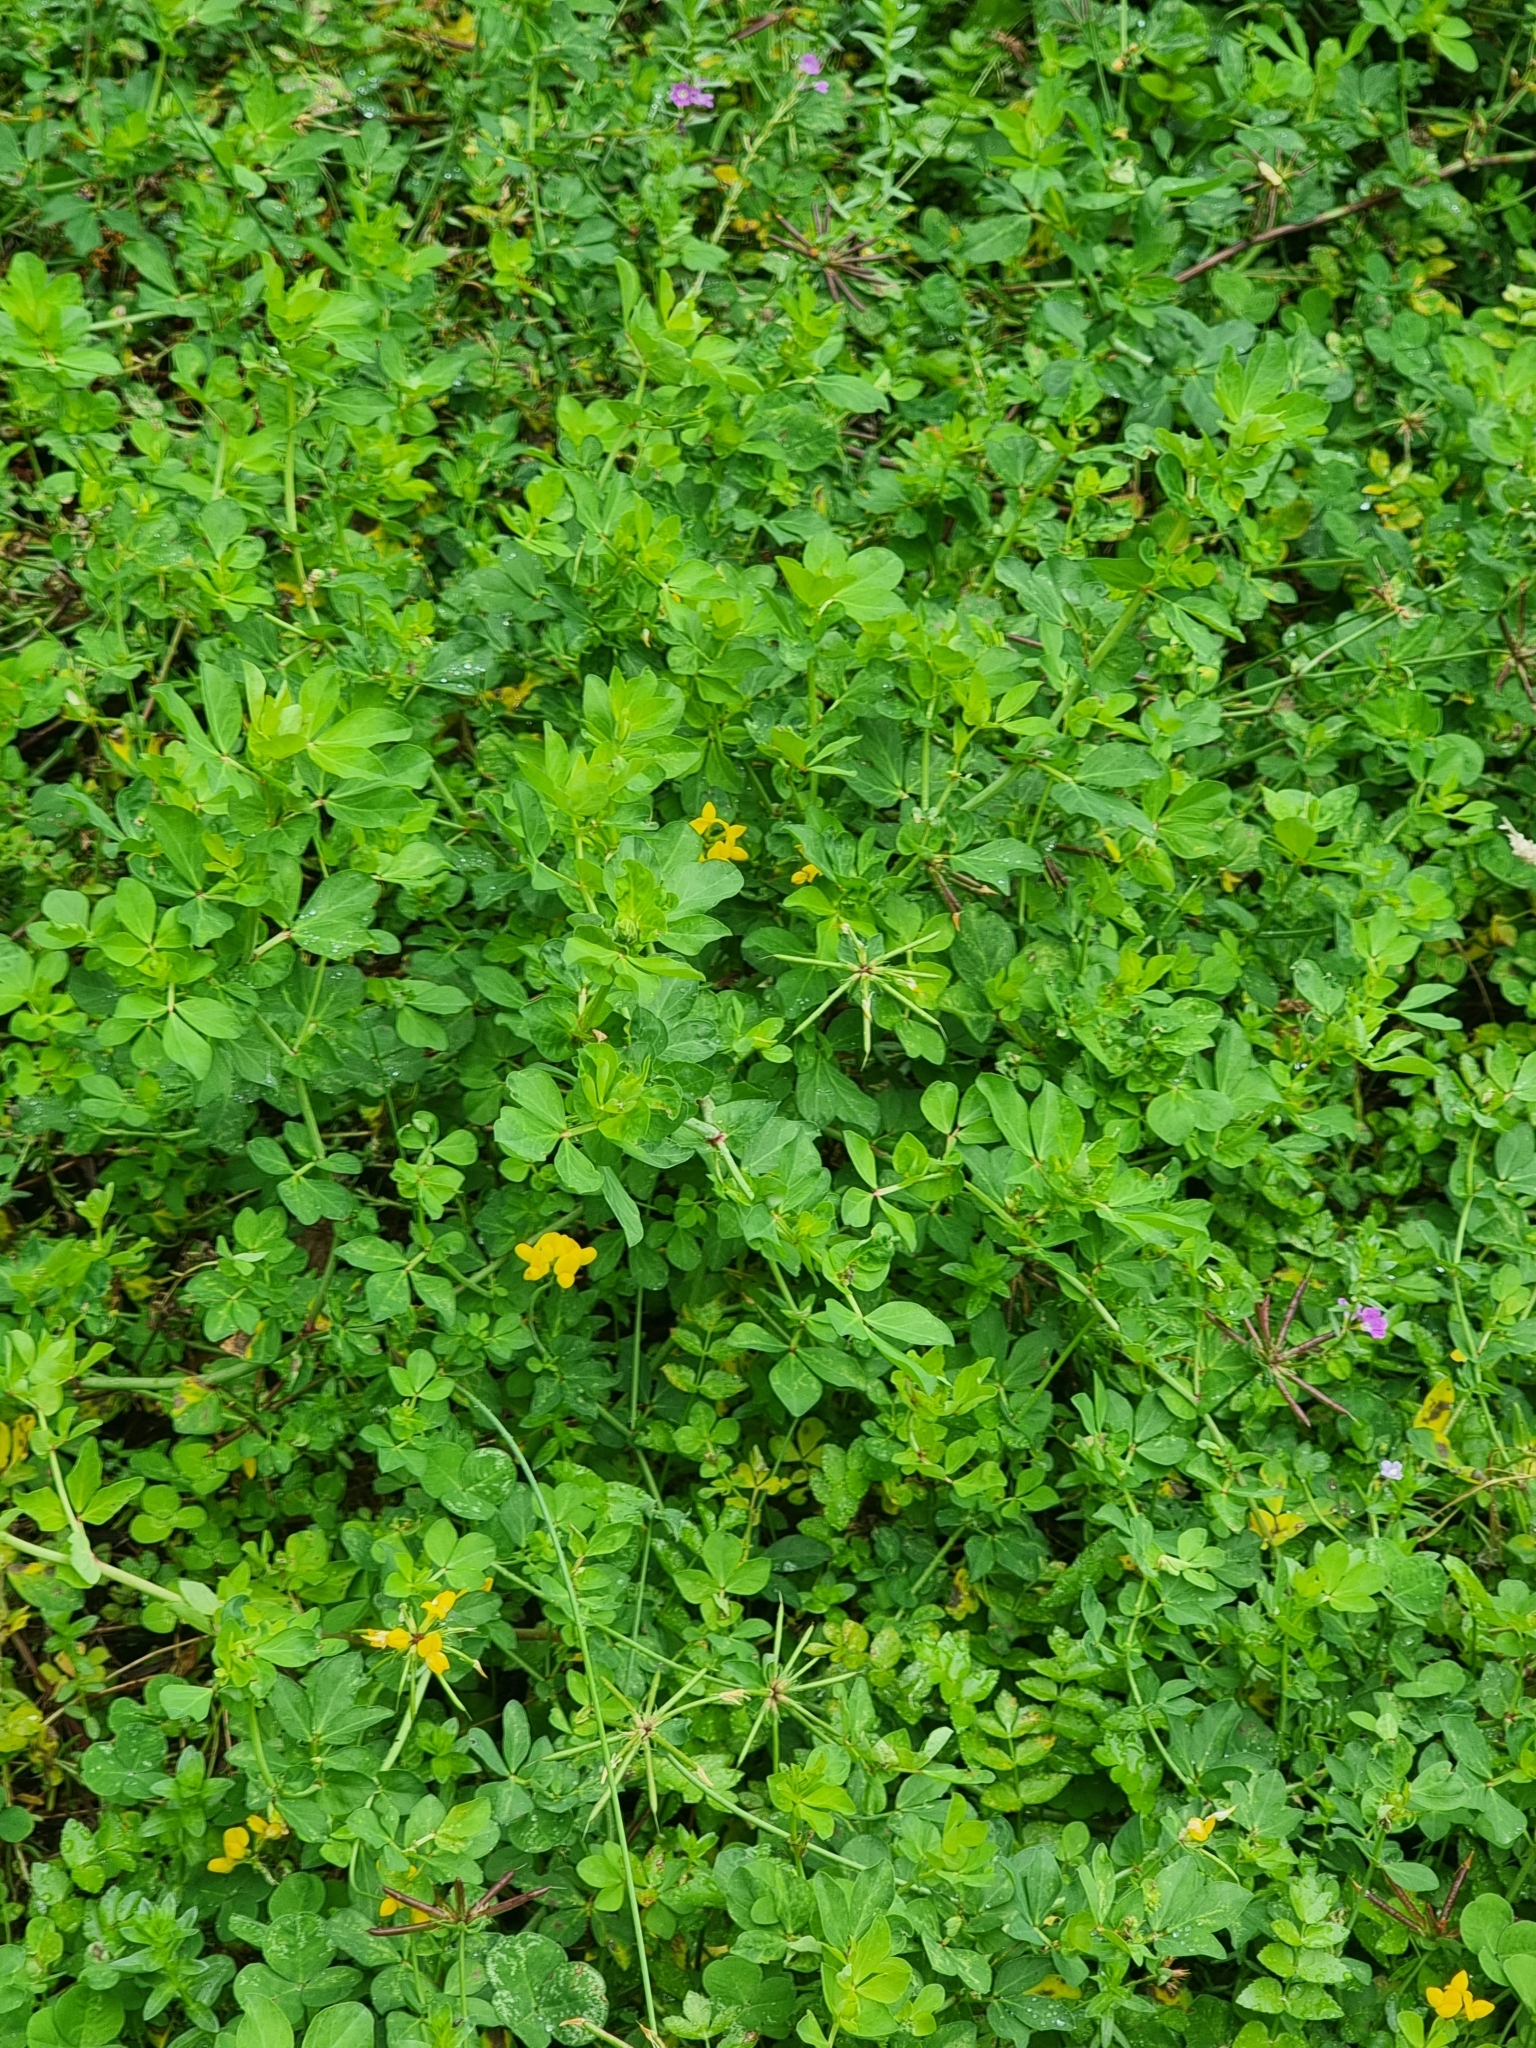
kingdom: Plantae
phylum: Tracheophyta
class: Magnoliopsida
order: Fabales
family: Fabaceae
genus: Lotus
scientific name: Lotus pedunculatus
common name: Greater birdsfoot-trefoil
